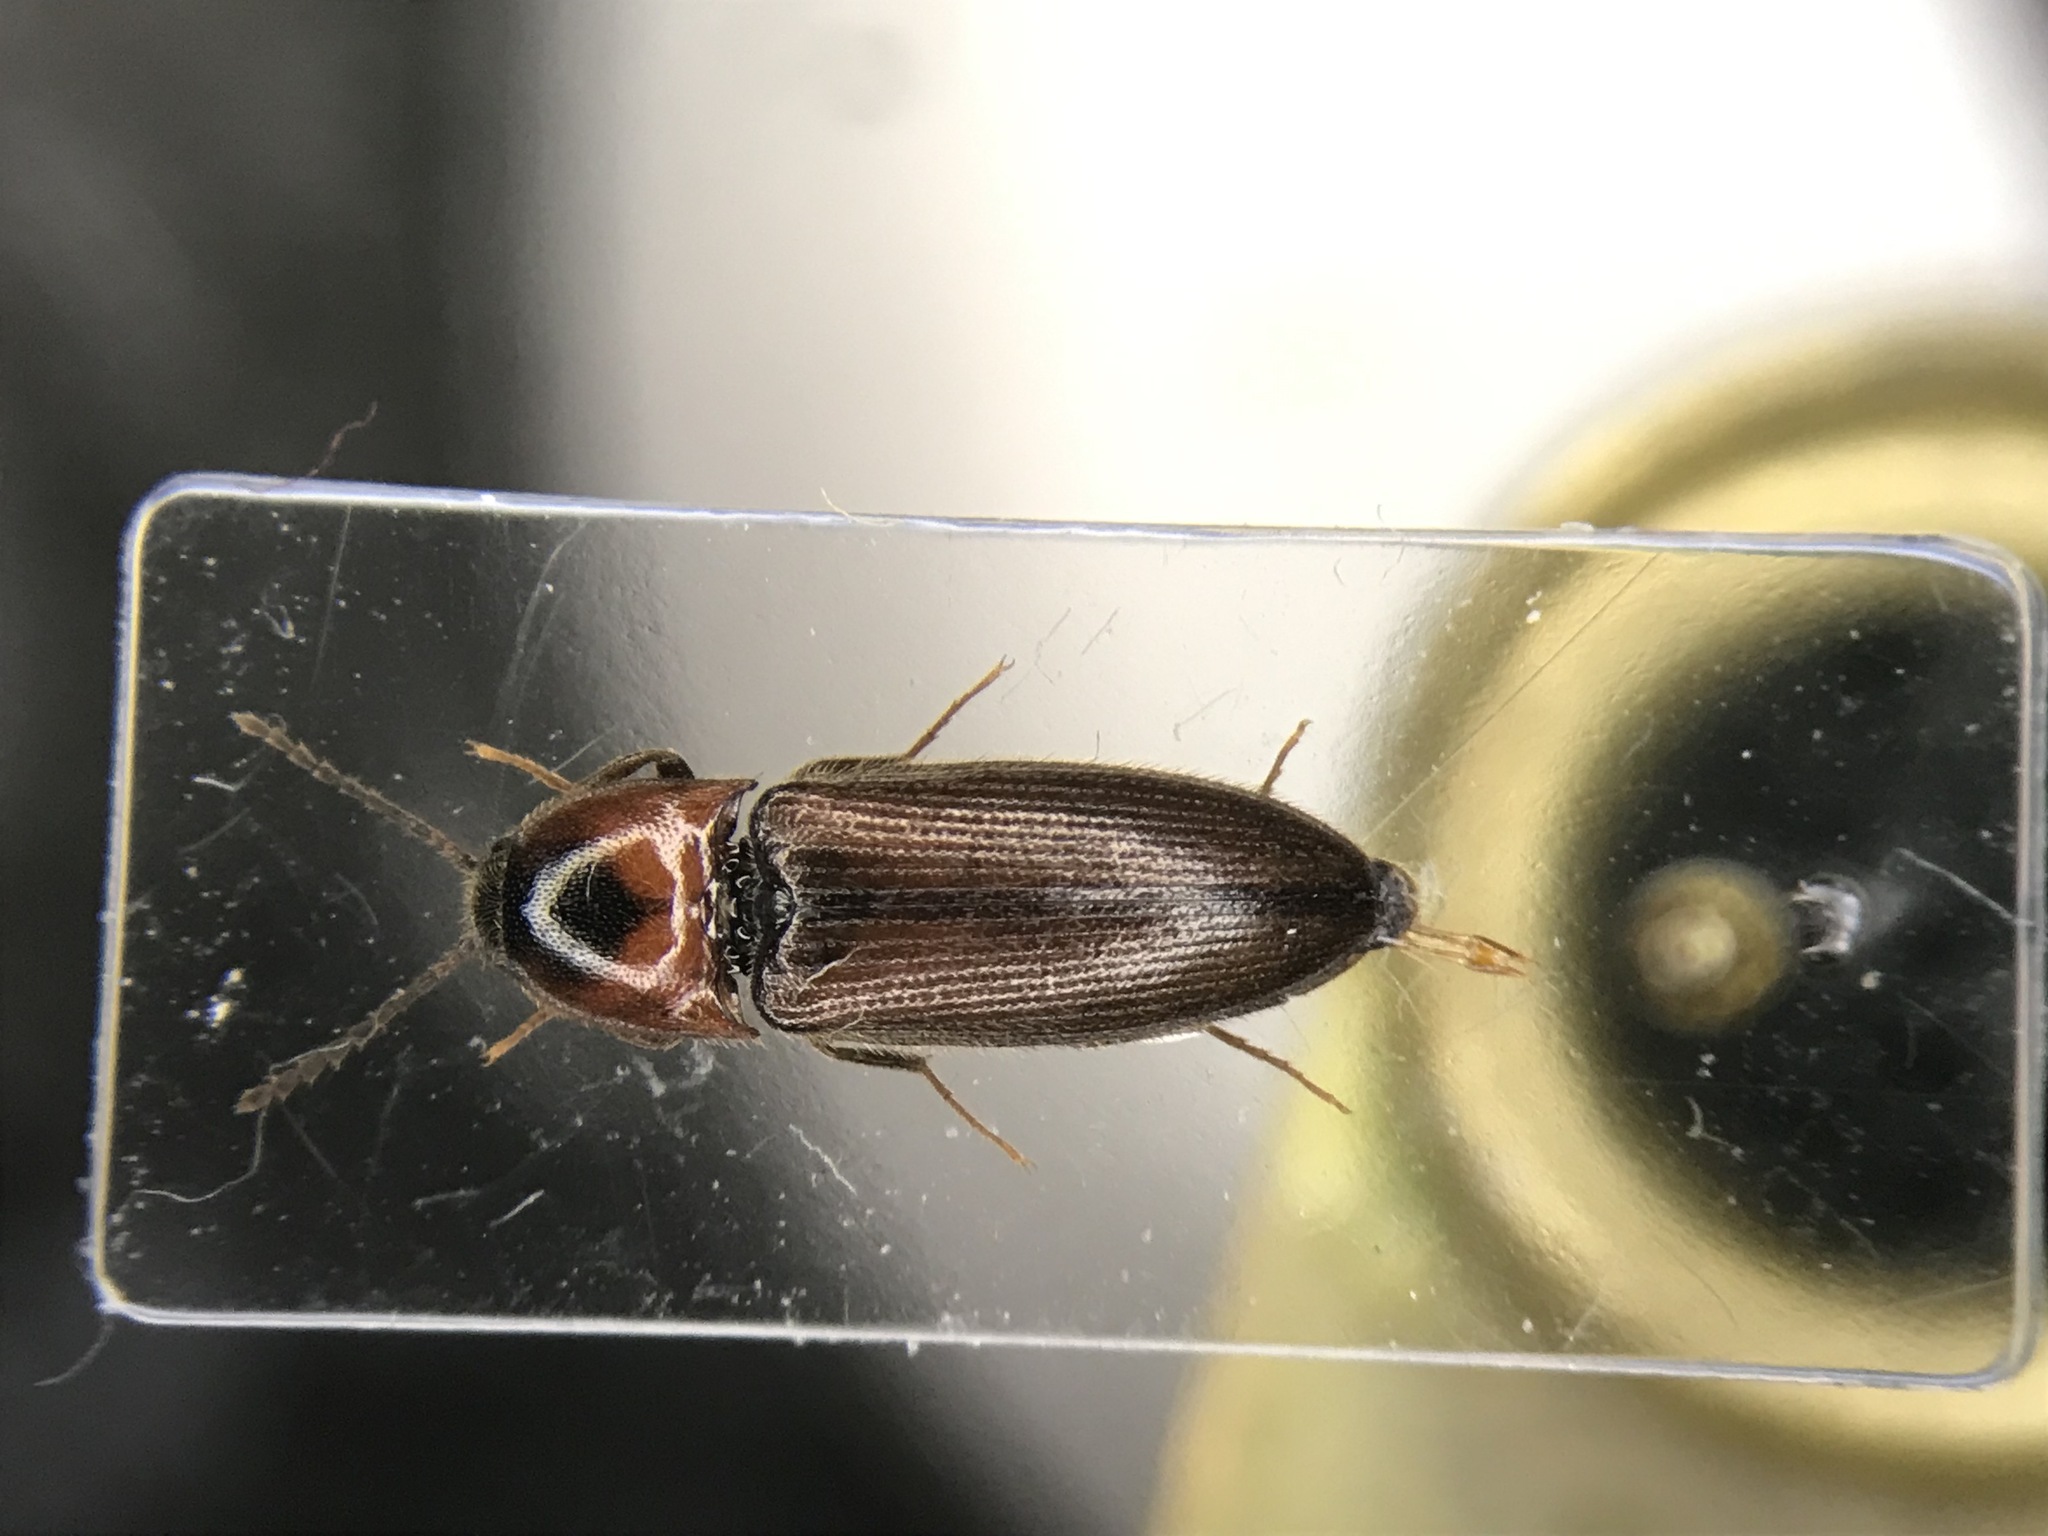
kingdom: Animalia
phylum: Arthropoda
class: Insecta
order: Coleoptera
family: Elateridae
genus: Ampedus
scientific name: Ampedus rubricus
